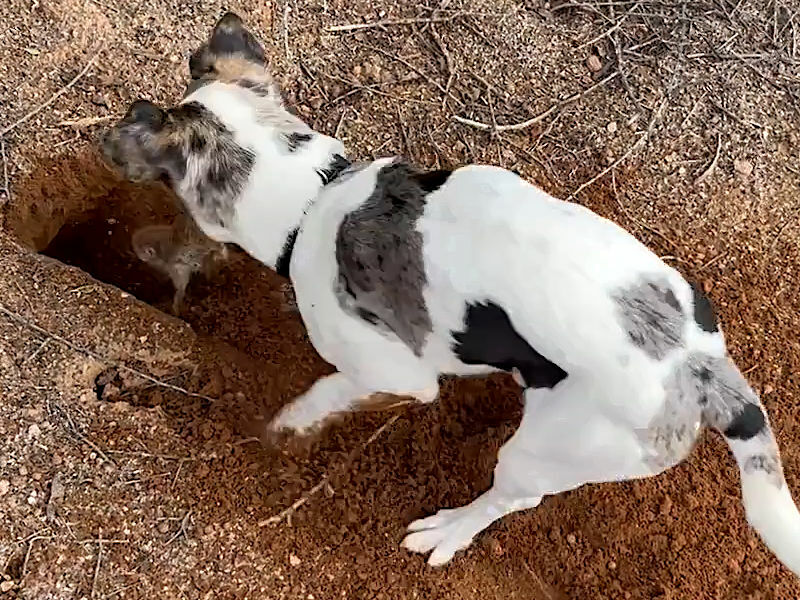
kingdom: Animalia
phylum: Chordata
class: Mammalia
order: Rodentia
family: Sciuridae
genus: Xerospermophilus
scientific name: Xerospermophilus tereticaudus
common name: Round-tailed ground squirrel
